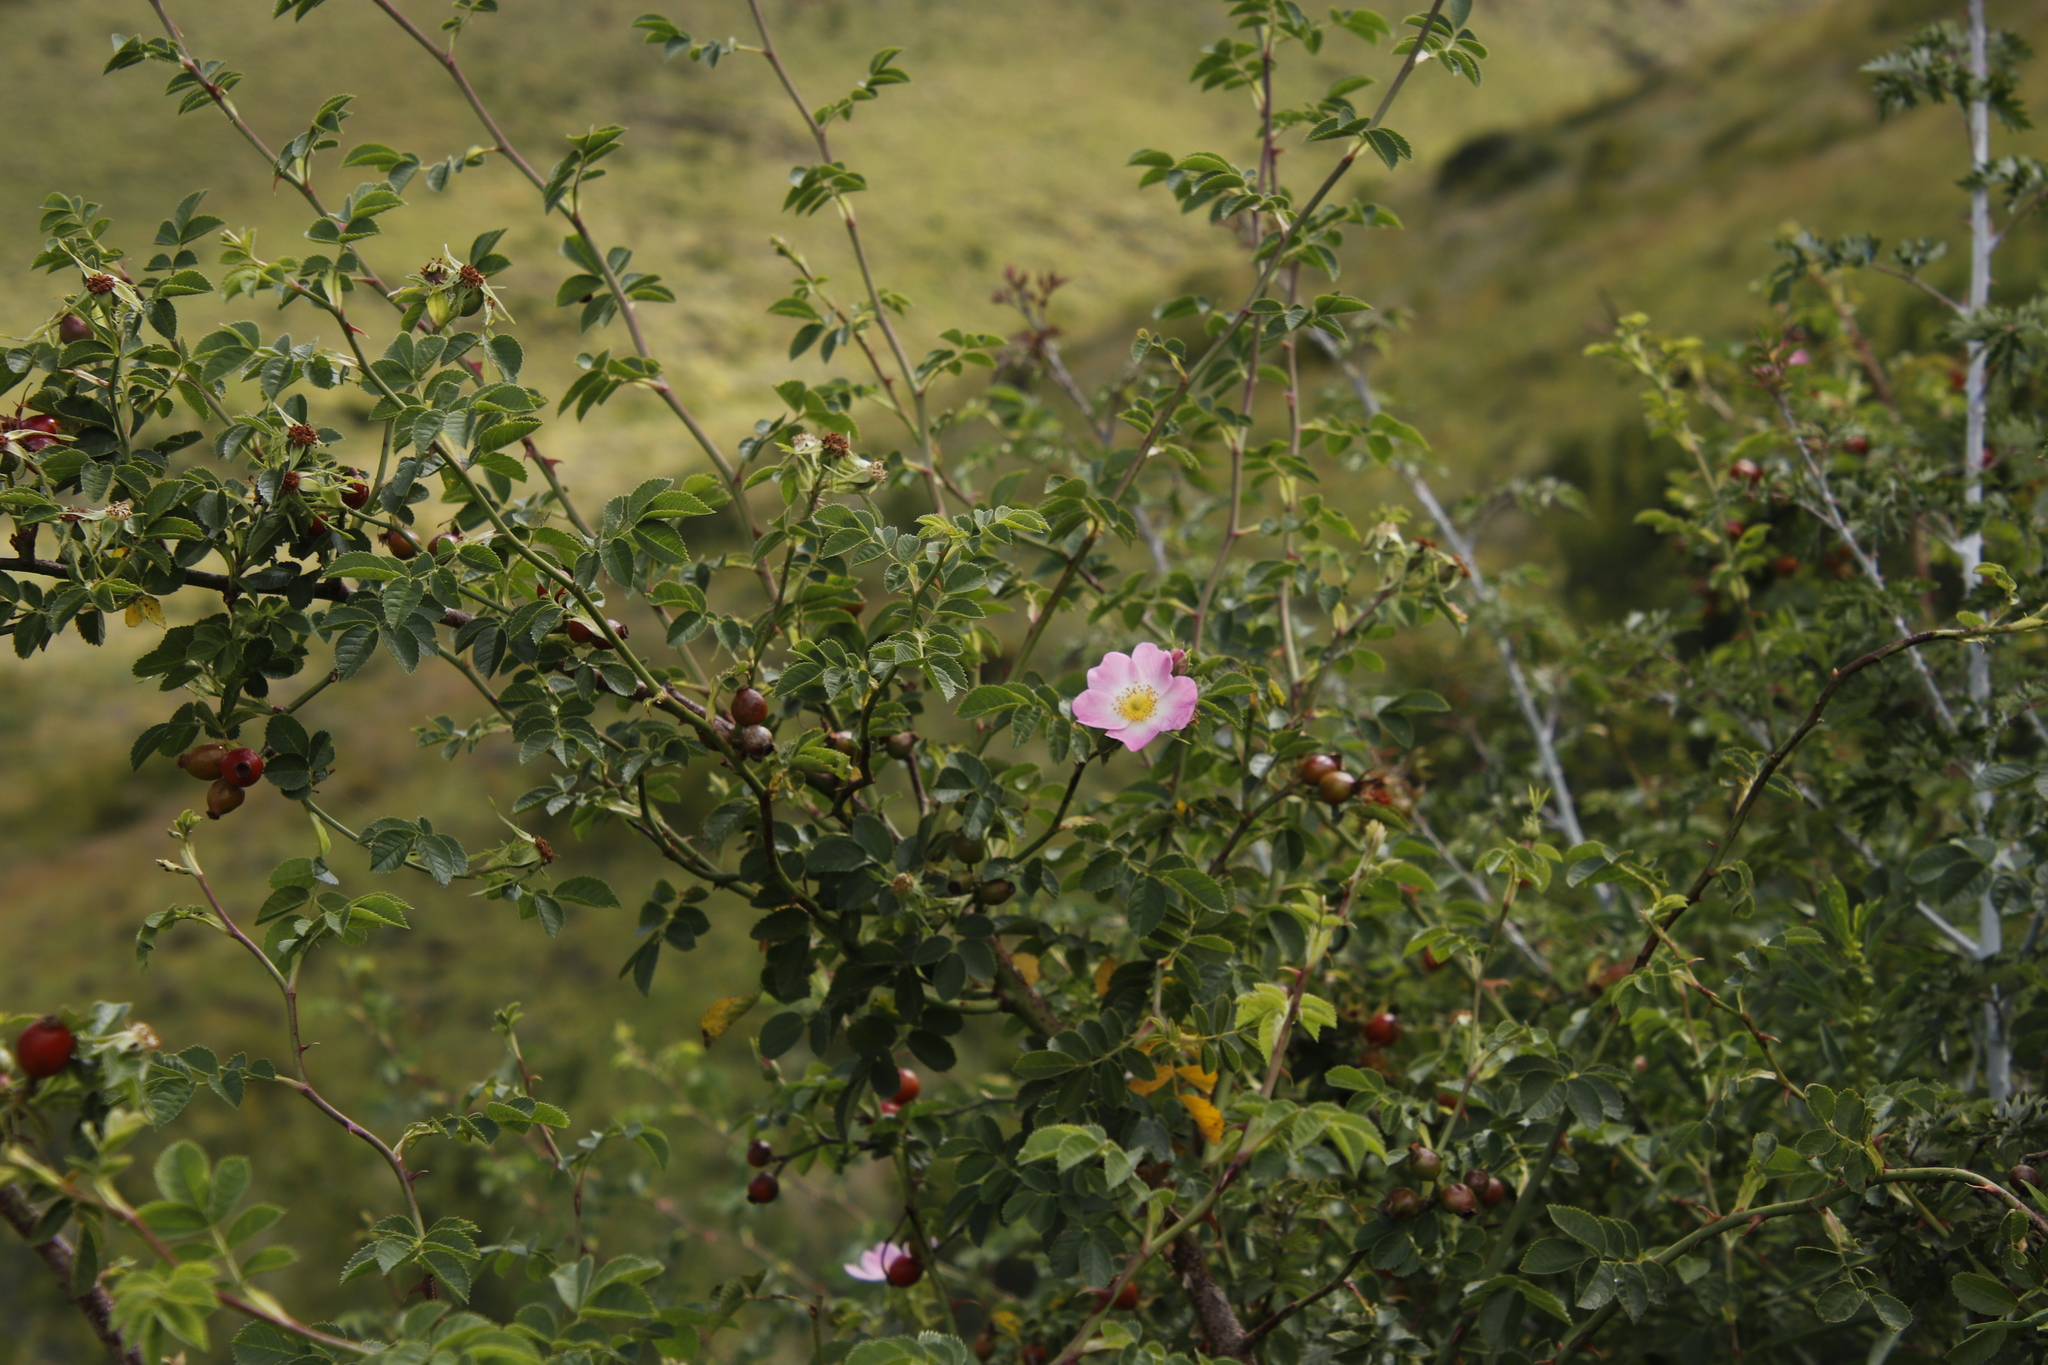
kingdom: Plantae
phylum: Tracheophyta
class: Magnoliopsida
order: Rosales
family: Rosaceae
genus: Rosa
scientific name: Rosa rubiginosa
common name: Sweet-briar
